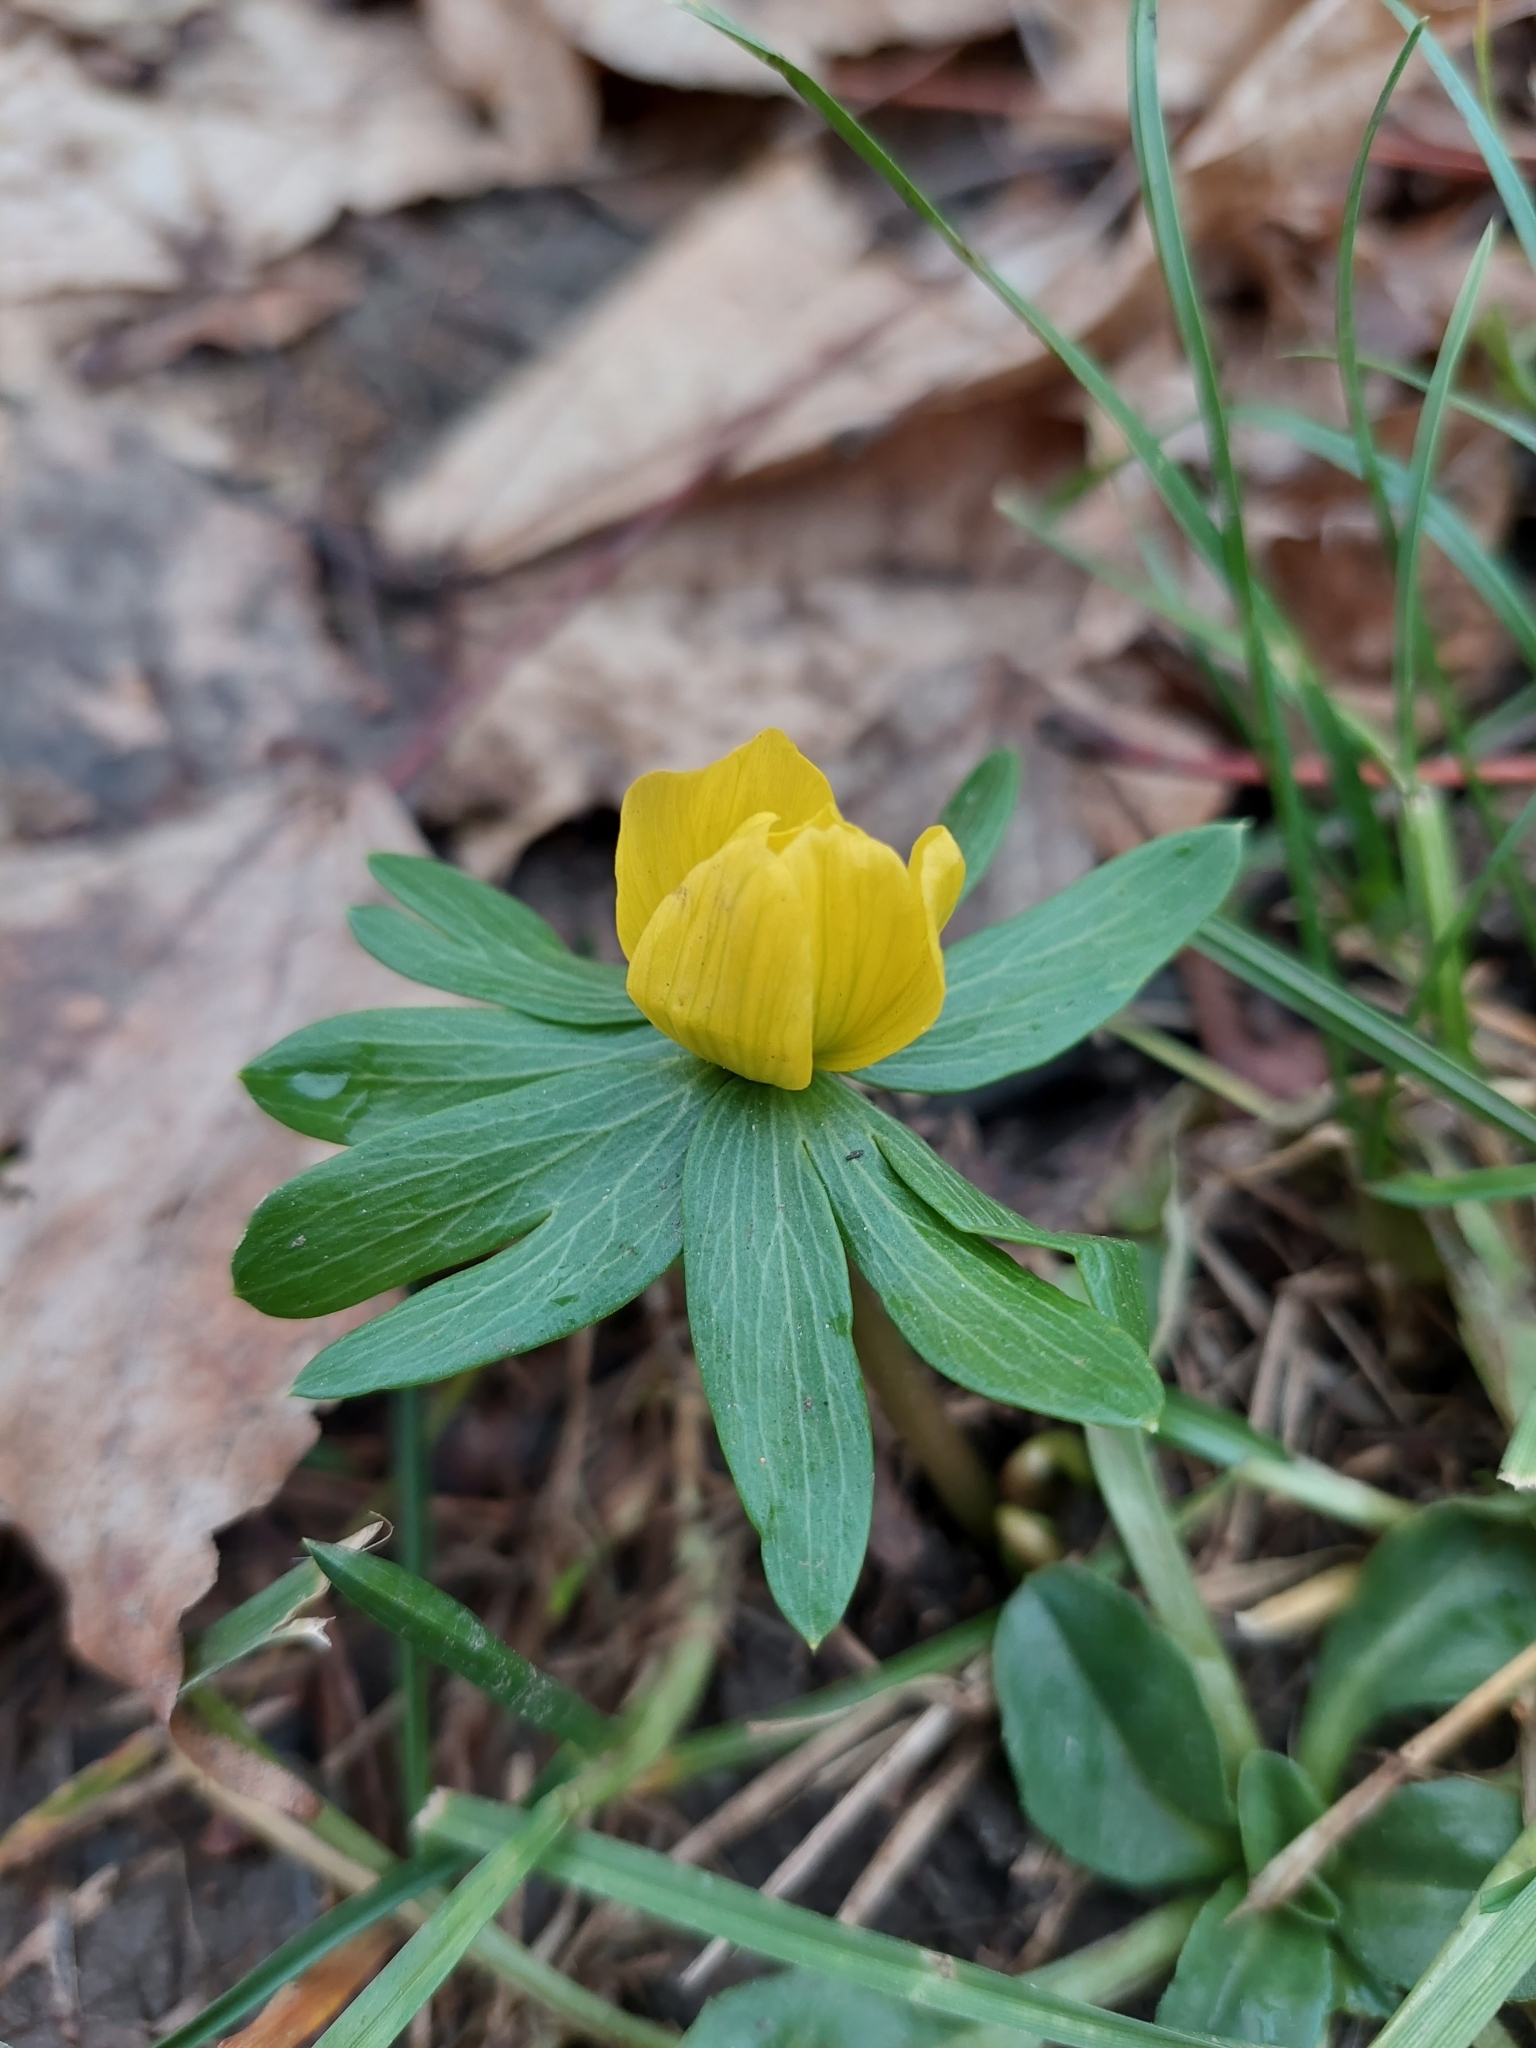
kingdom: Plantae
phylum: Tracheophyta
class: Magnoliopsida
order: Ranunculales
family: Ranunculaceae
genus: Eranthis
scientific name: Eranthis hyemalis
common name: Winter aconite
